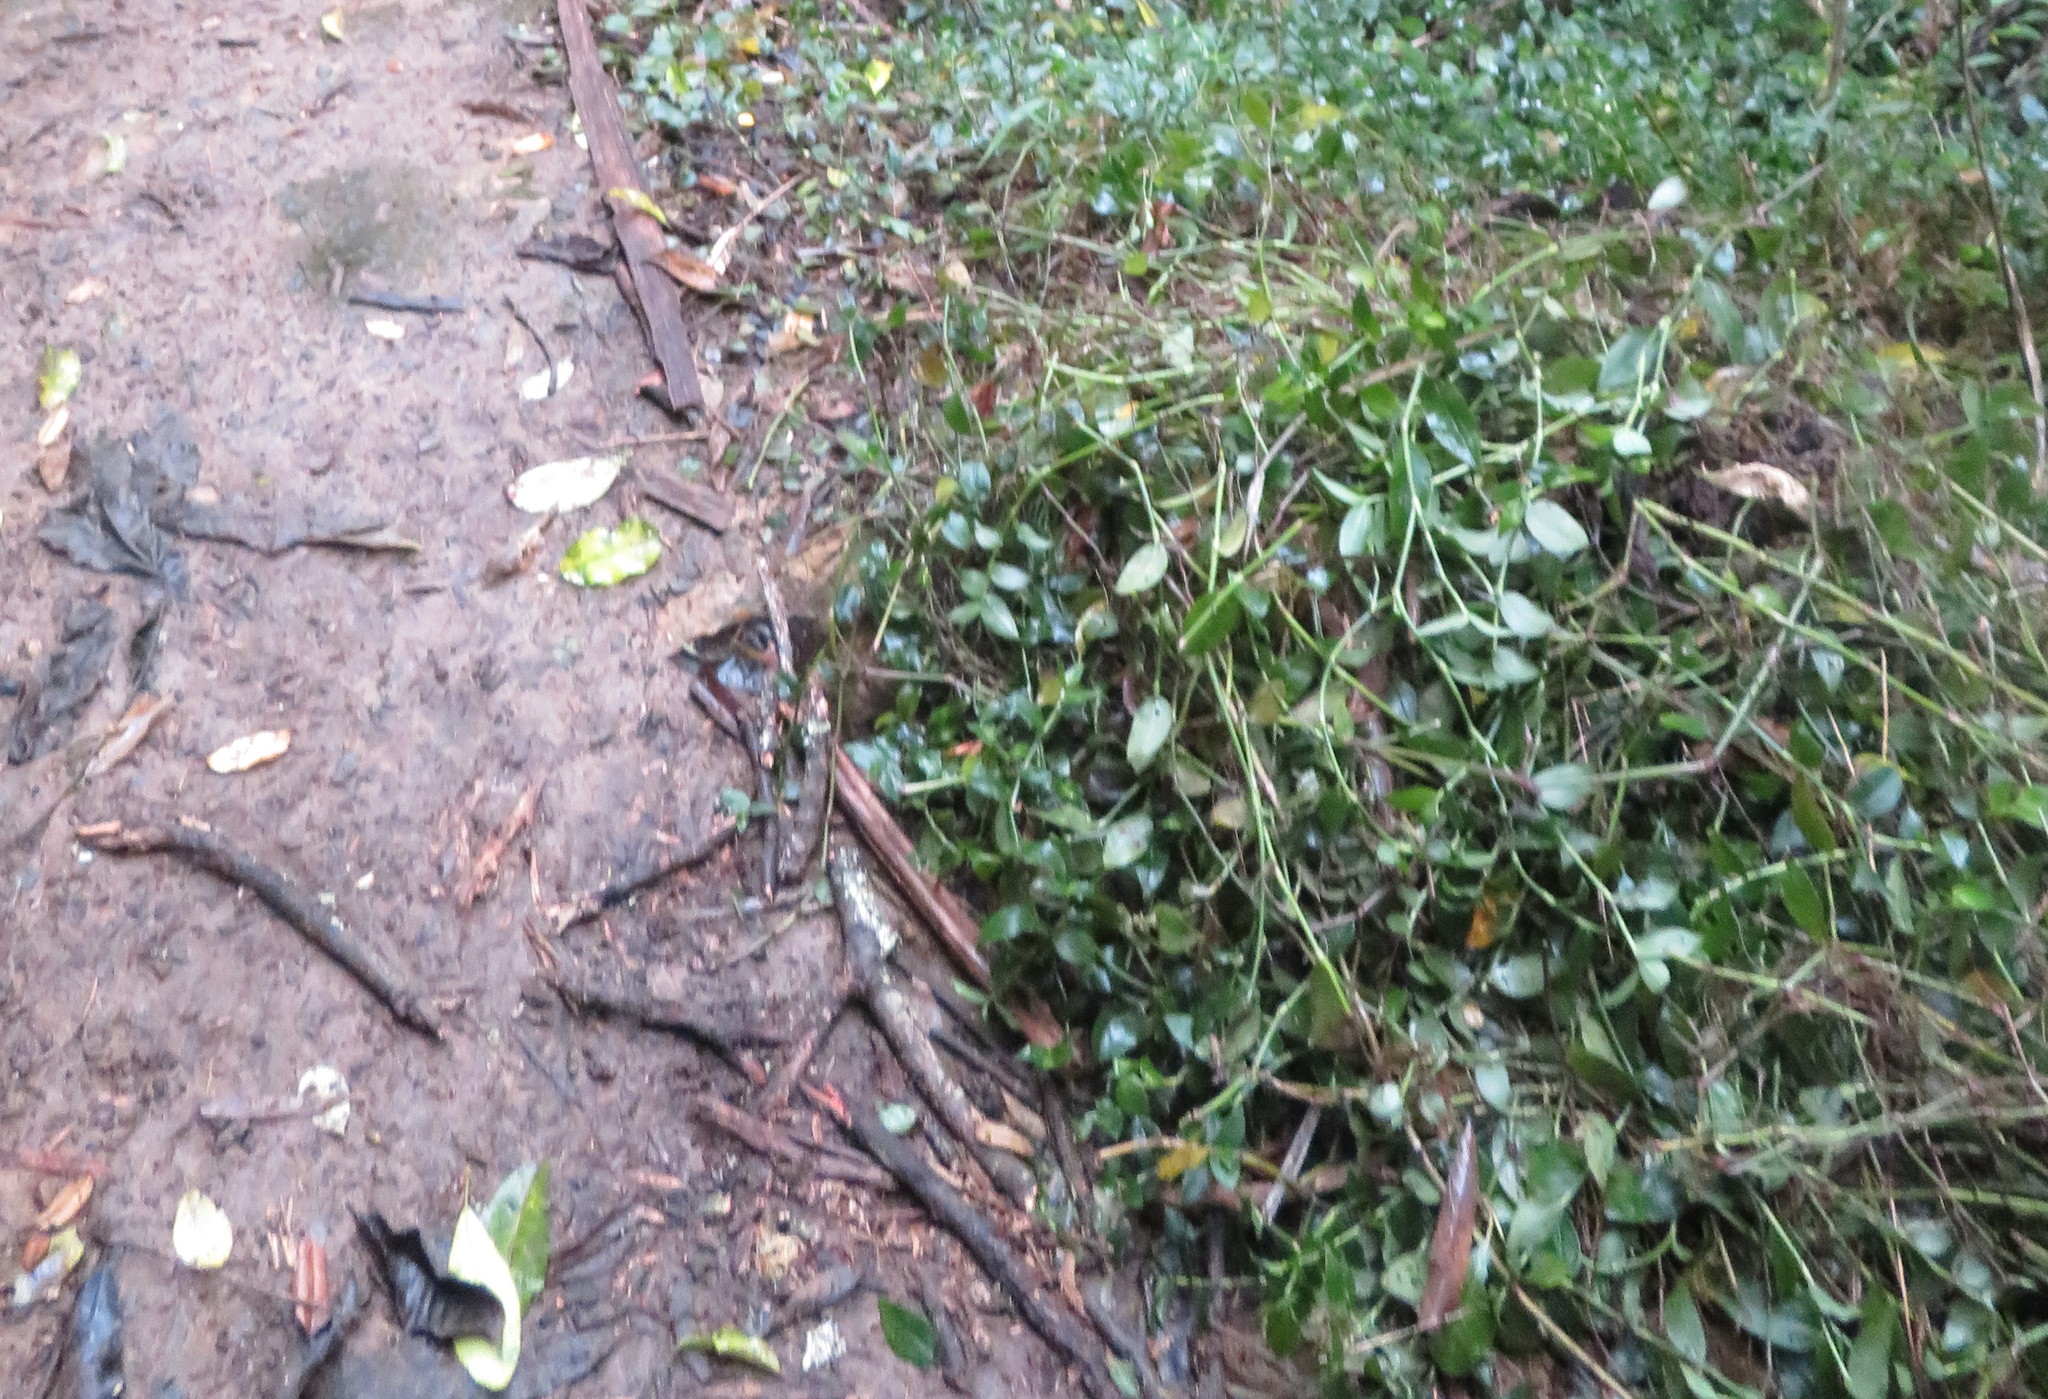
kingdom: Plantae
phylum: Tracheophyta
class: Liliopsida
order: Commelinales
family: Commelinaceae
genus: Tradescantia
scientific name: Tradescantia fluminensis
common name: Wandering-jew
